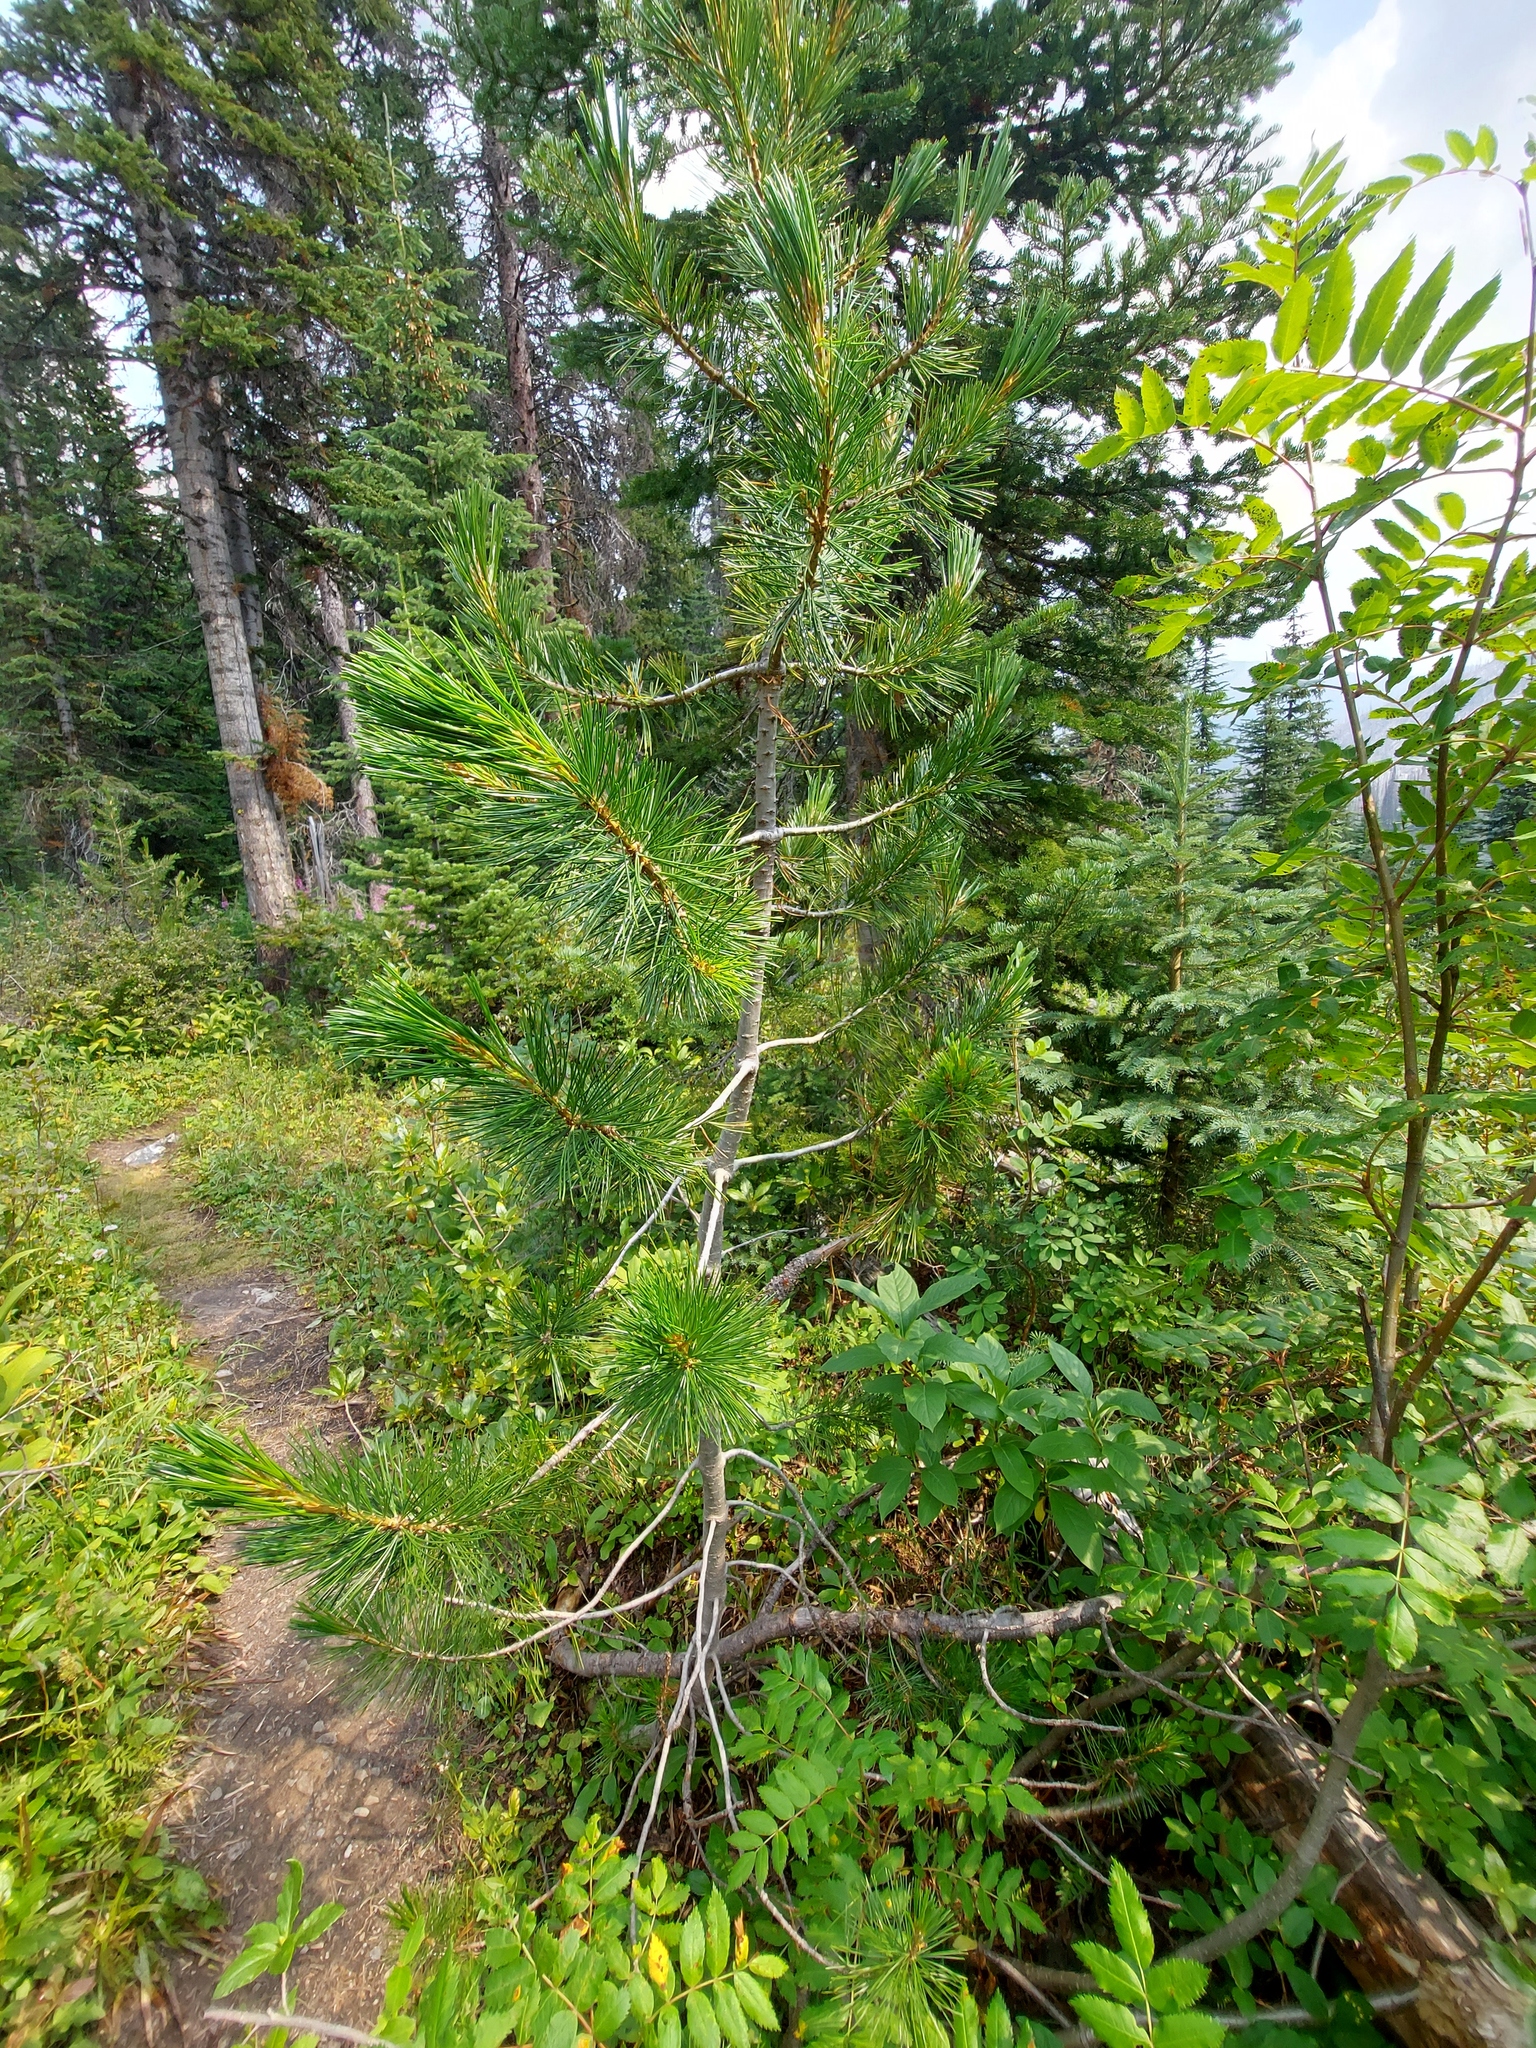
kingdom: Plantae
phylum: Tracheophyta
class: Pinopsida
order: Pinales
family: Pinaceae
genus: Pinus
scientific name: Pinus albicaulis
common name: Whitebark pine
